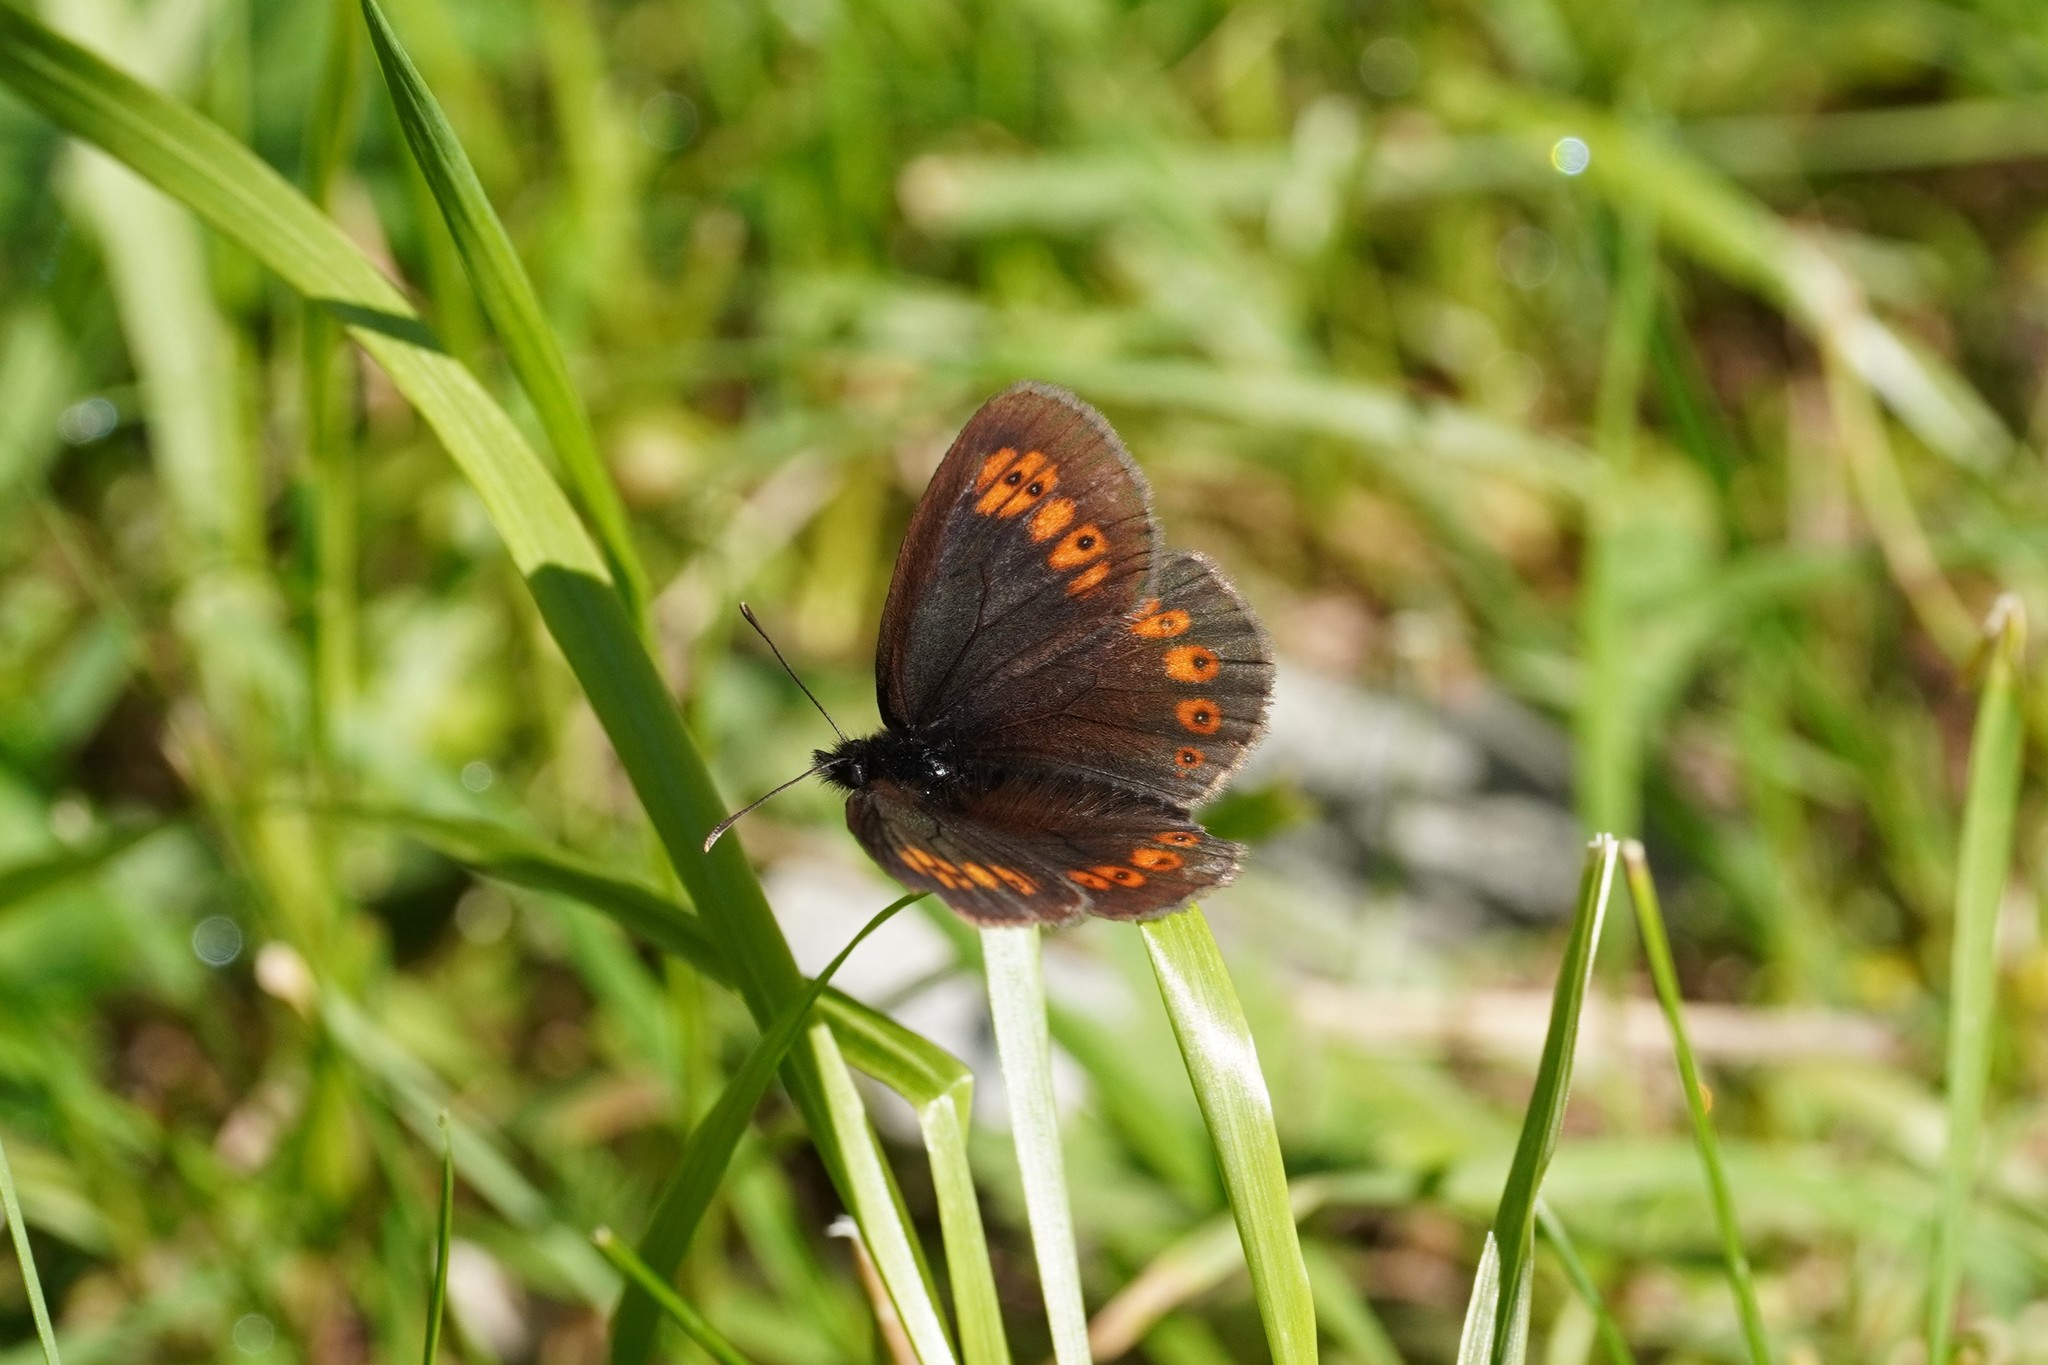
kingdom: Animalia
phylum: Arthropoda
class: Insecta
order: Lepidoptera
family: Nymphalidae
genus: Erebia
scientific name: Erebia alberganus
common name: Almond-eyed ringlet
